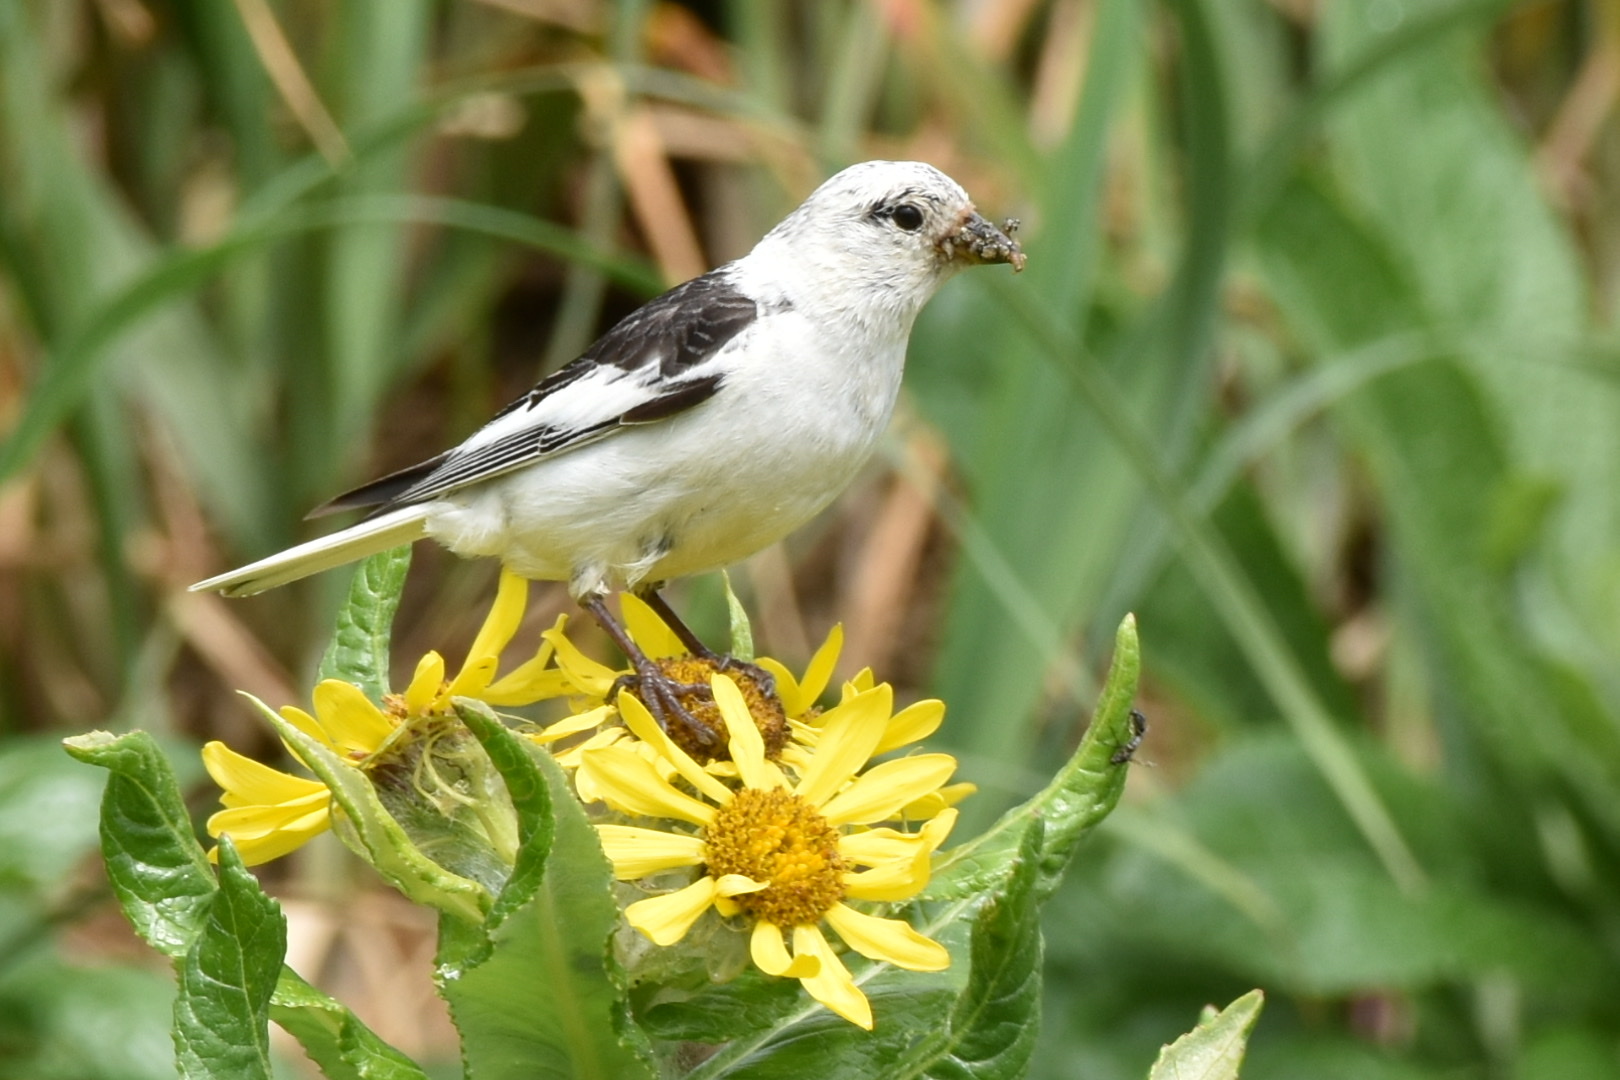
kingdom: Animalia
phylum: Chordata
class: Aves
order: Passeriformes
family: Calcariidae
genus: Plectrophenax
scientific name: Plectrophenax nivalis
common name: Snow bunting
